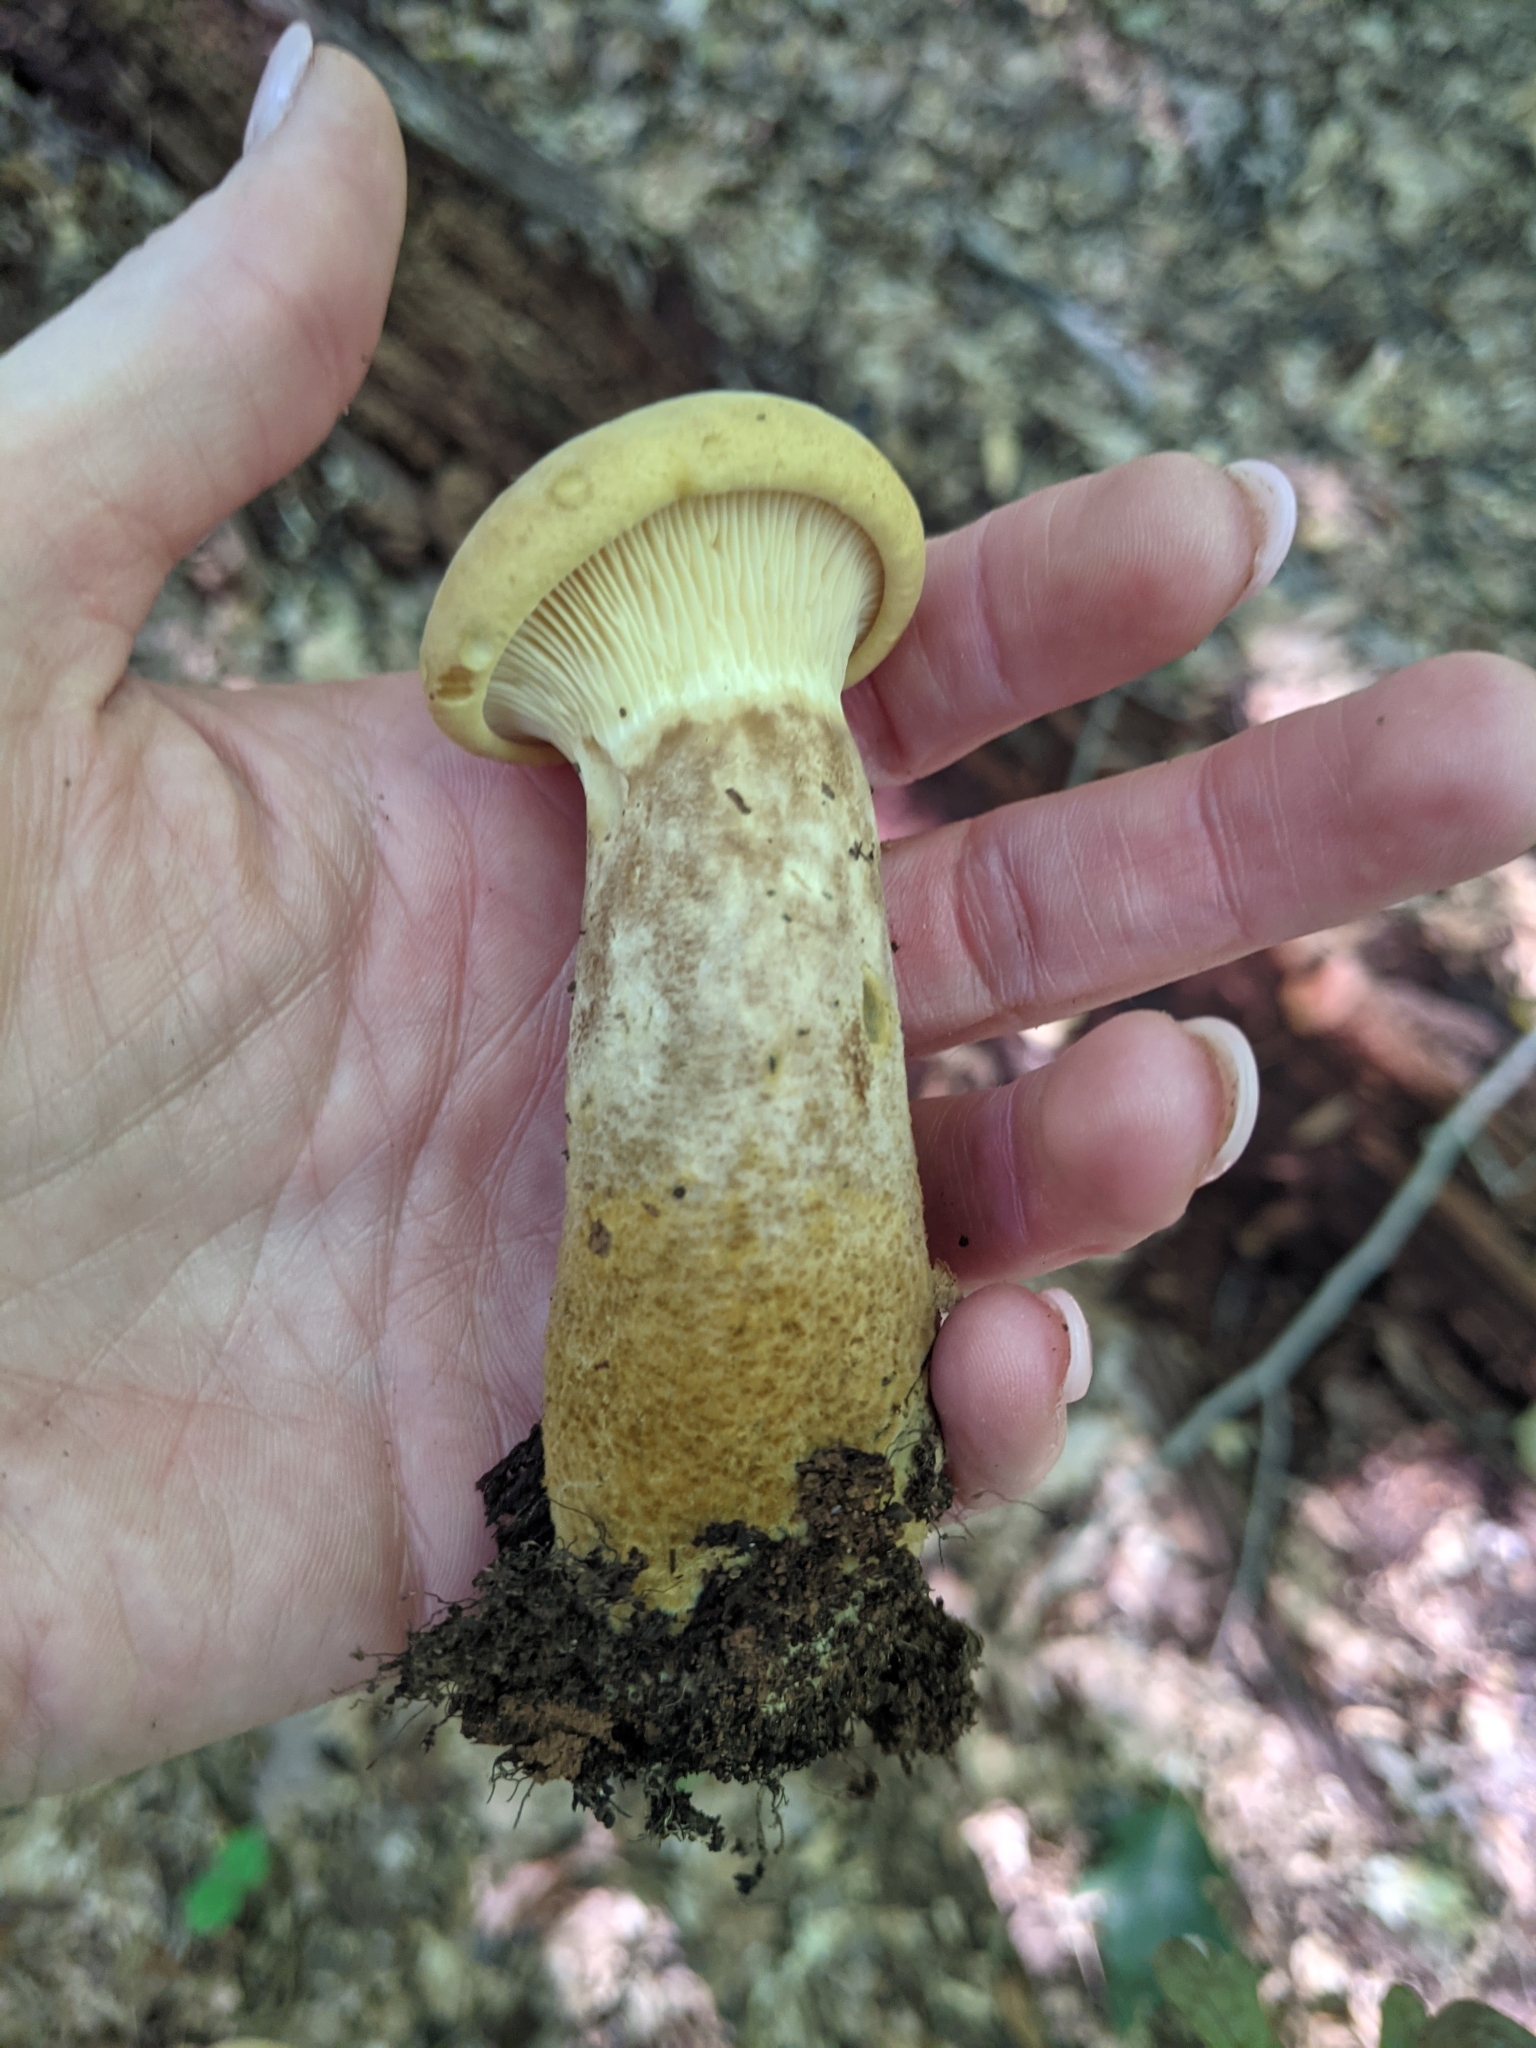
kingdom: Fungi
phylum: Basidiomycota
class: Agaricomycetes
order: Boletales
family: Tapinellaceae
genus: Tapinella
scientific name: Tapinella atrotomentosa
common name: Velvet rollrim
